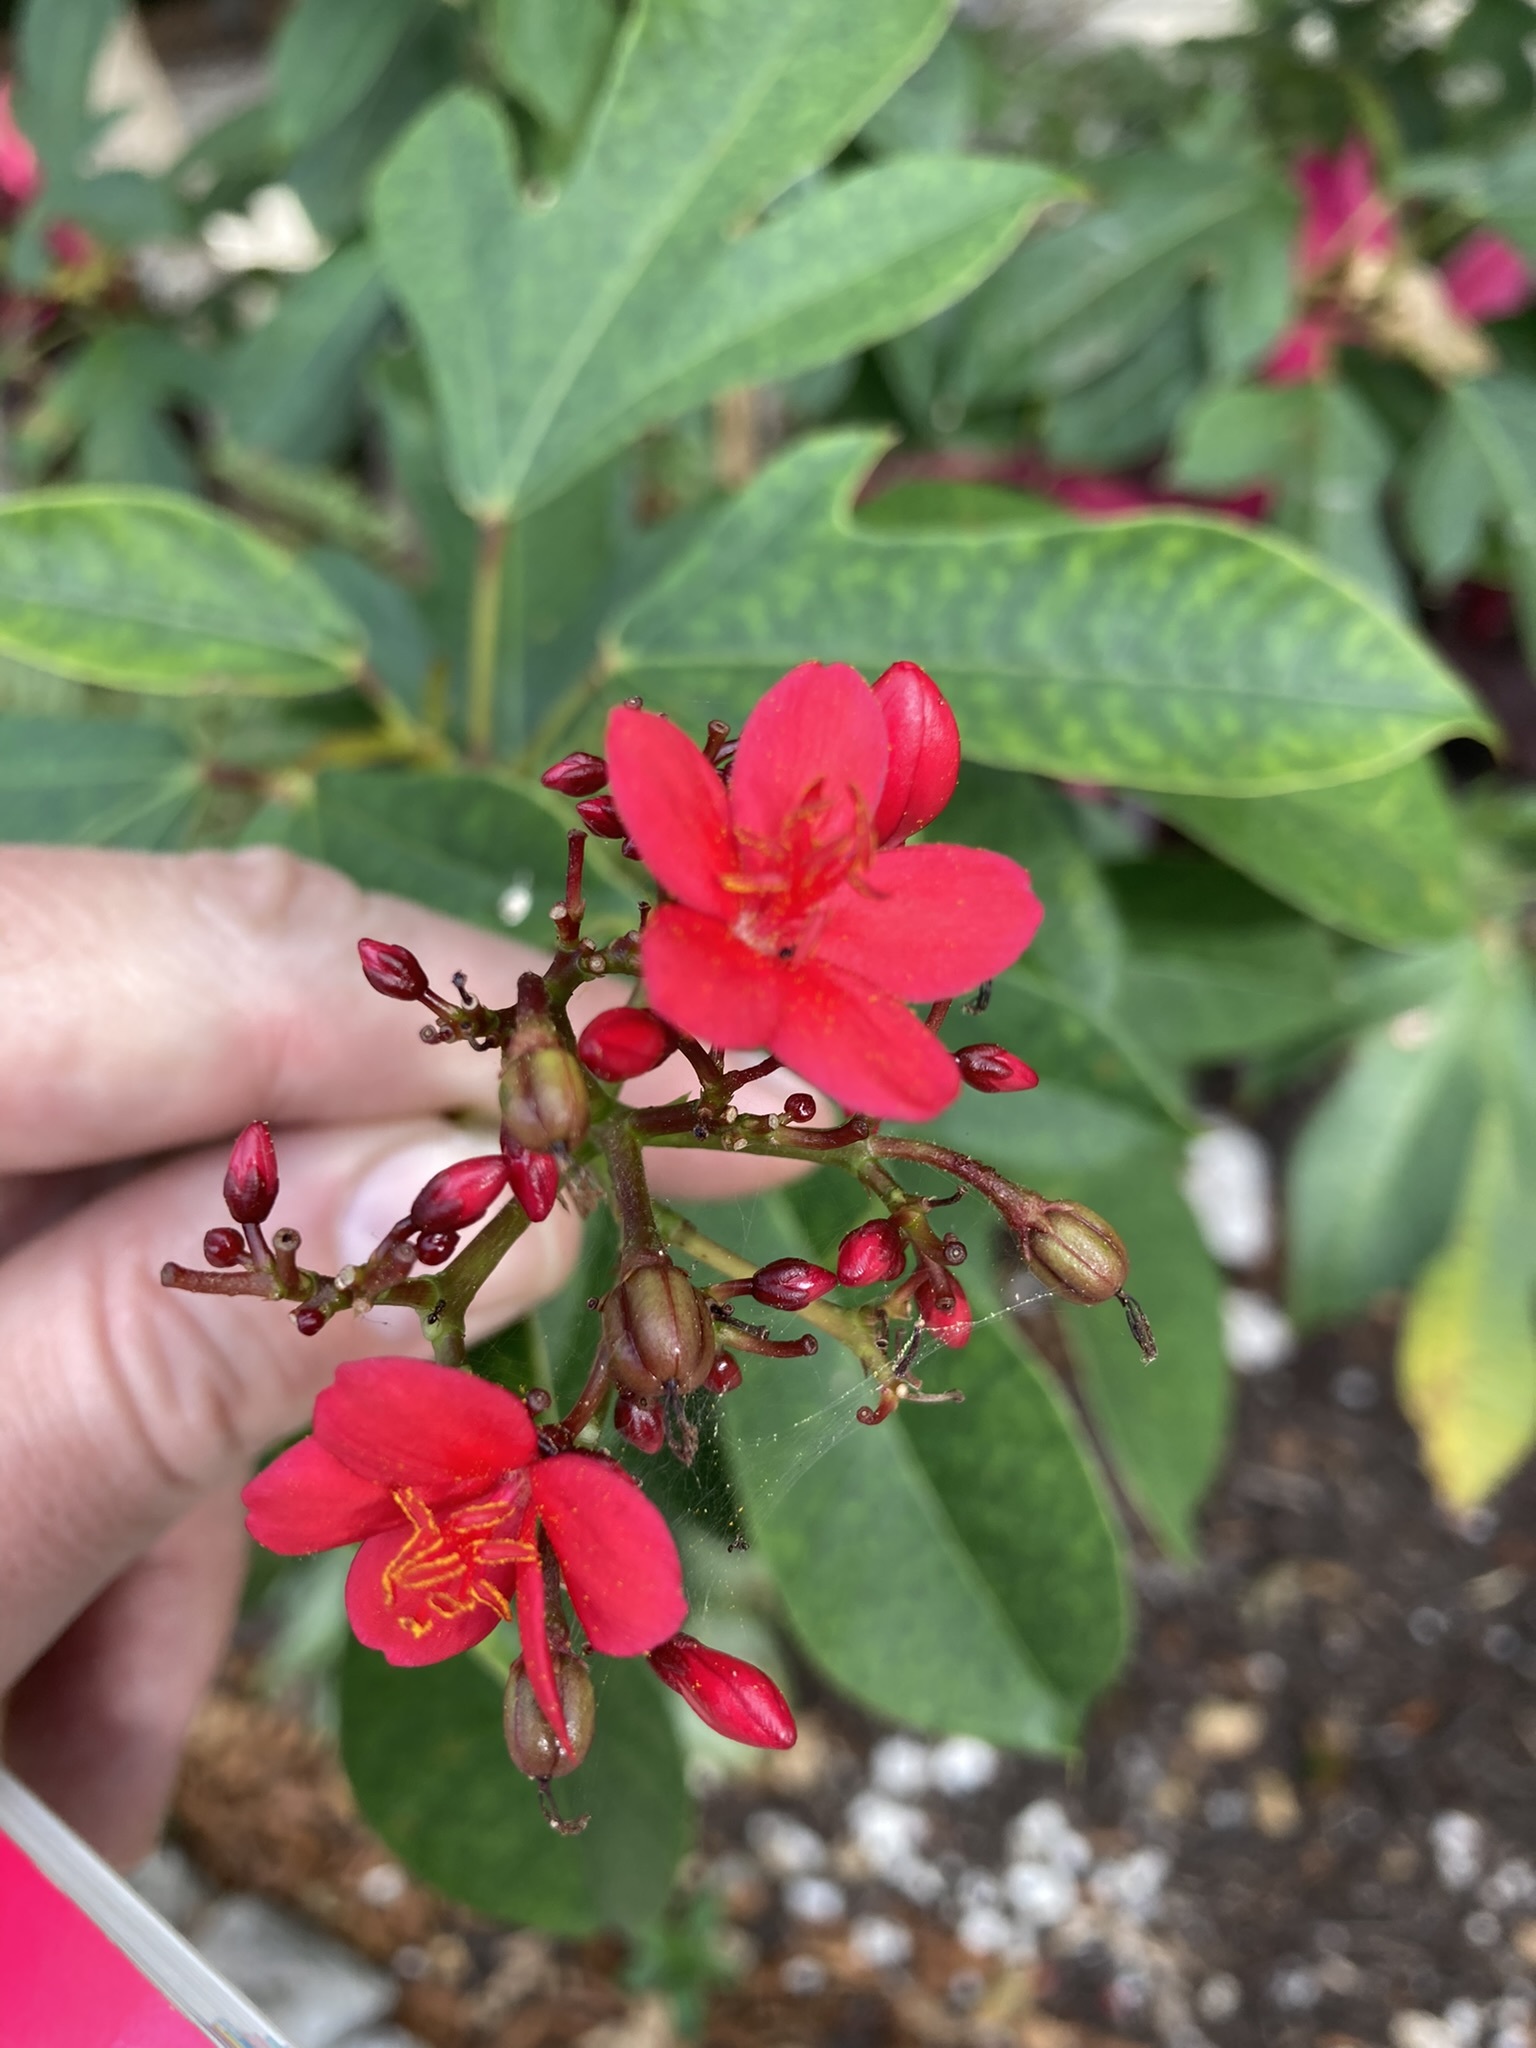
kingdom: Plantae
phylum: Tracheophyta
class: Magnoliopsida
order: Malpighiales
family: Euphorbiaceae
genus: Jatropha
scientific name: Jatropha integerrima
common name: Peregrina
